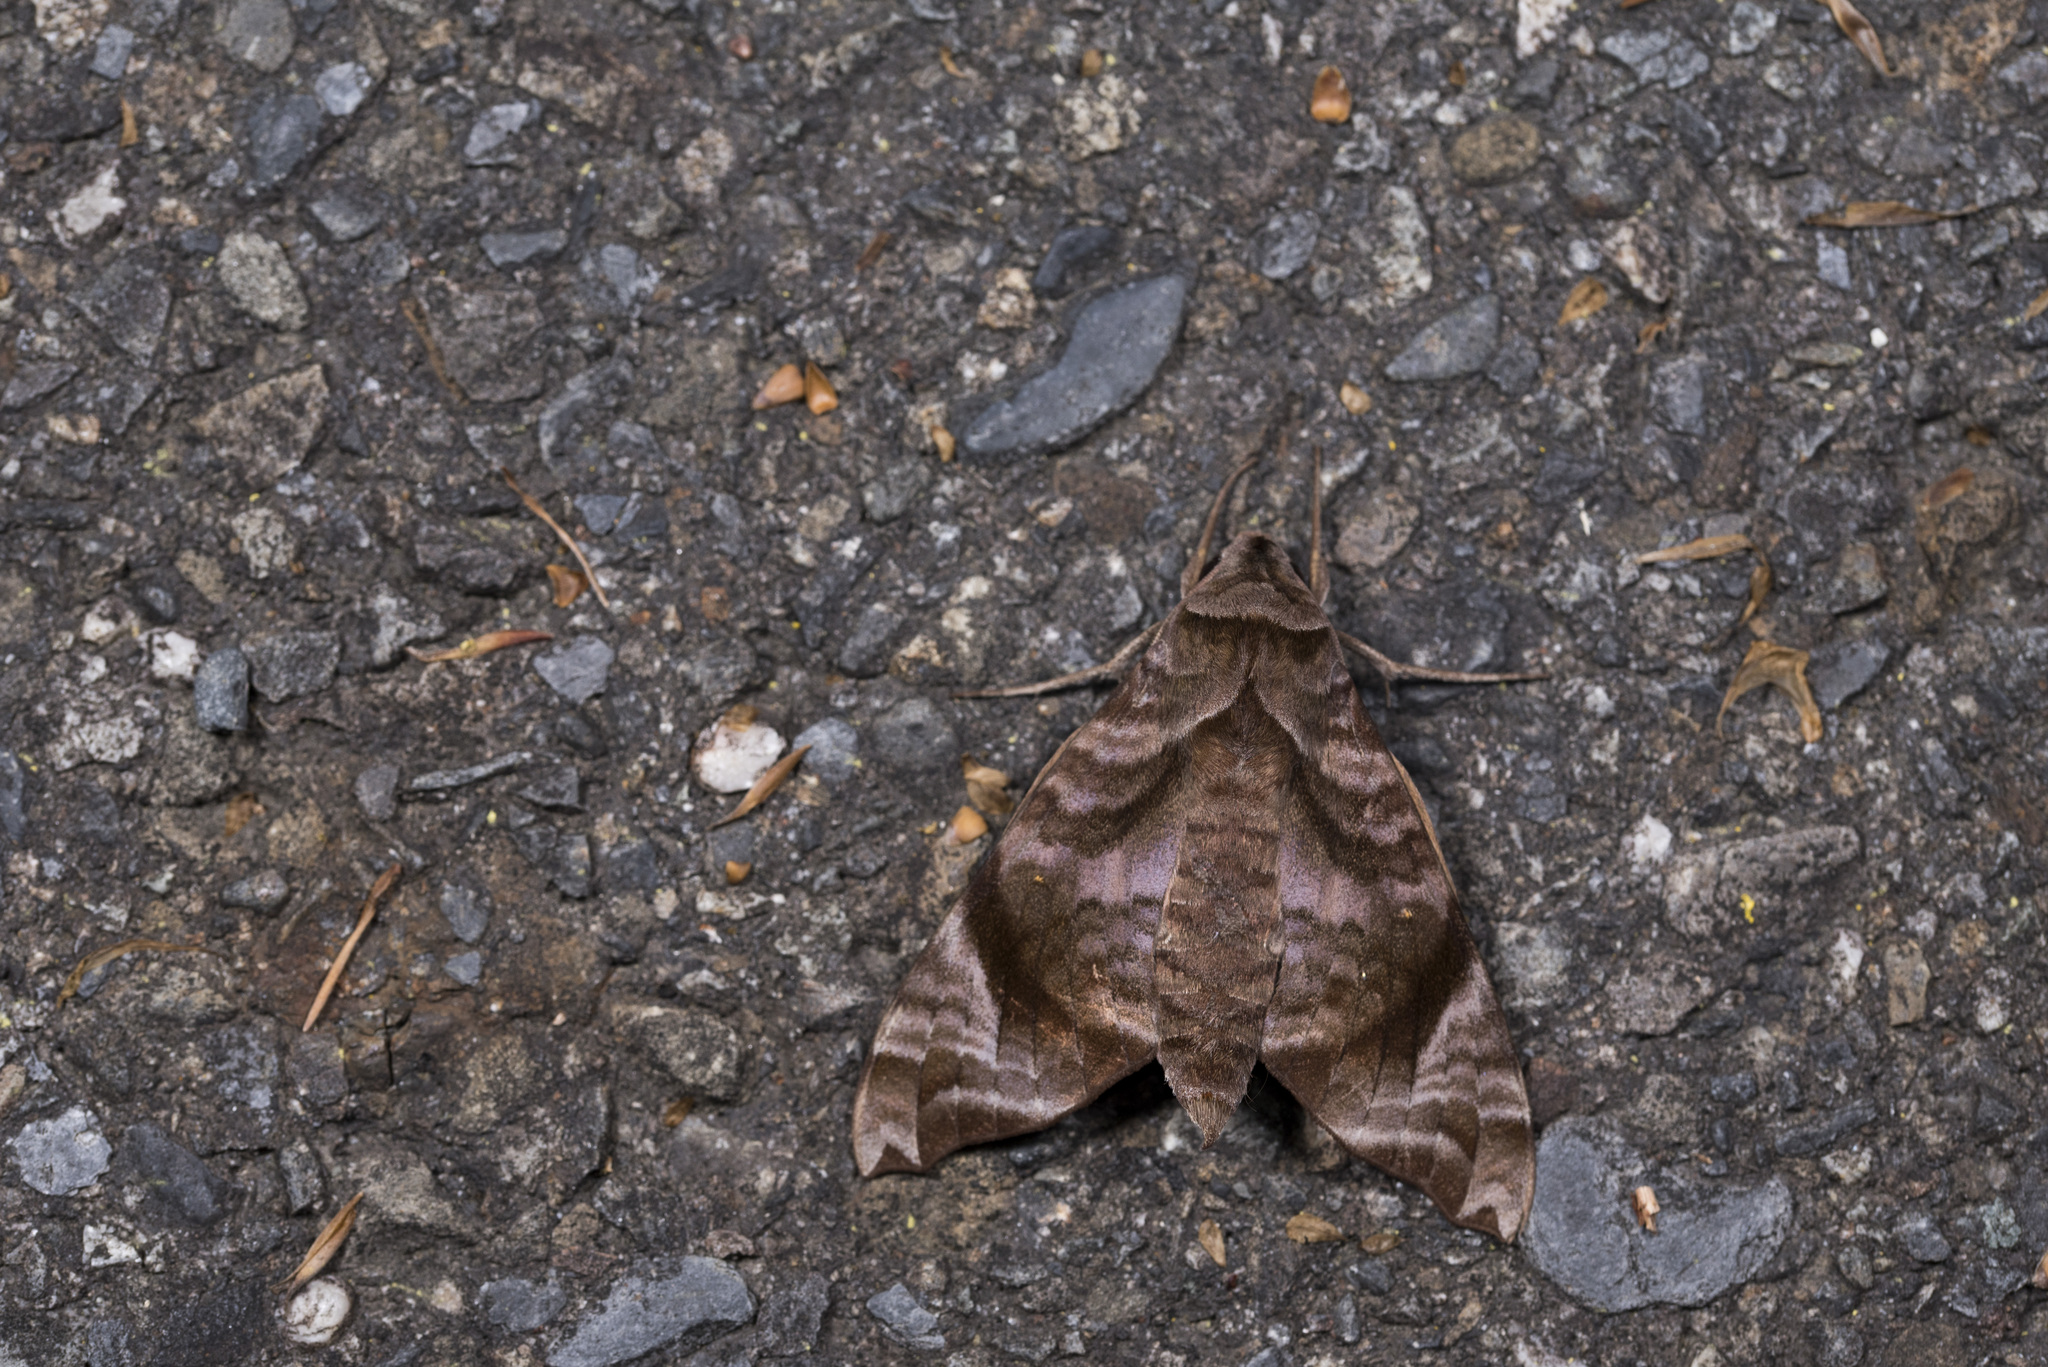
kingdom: Animalia
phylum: Arthropoda
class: Insecta
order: Lepidoptera
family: Sphingidae
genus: Acosmeryx
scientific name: Acosmeryx castanea
